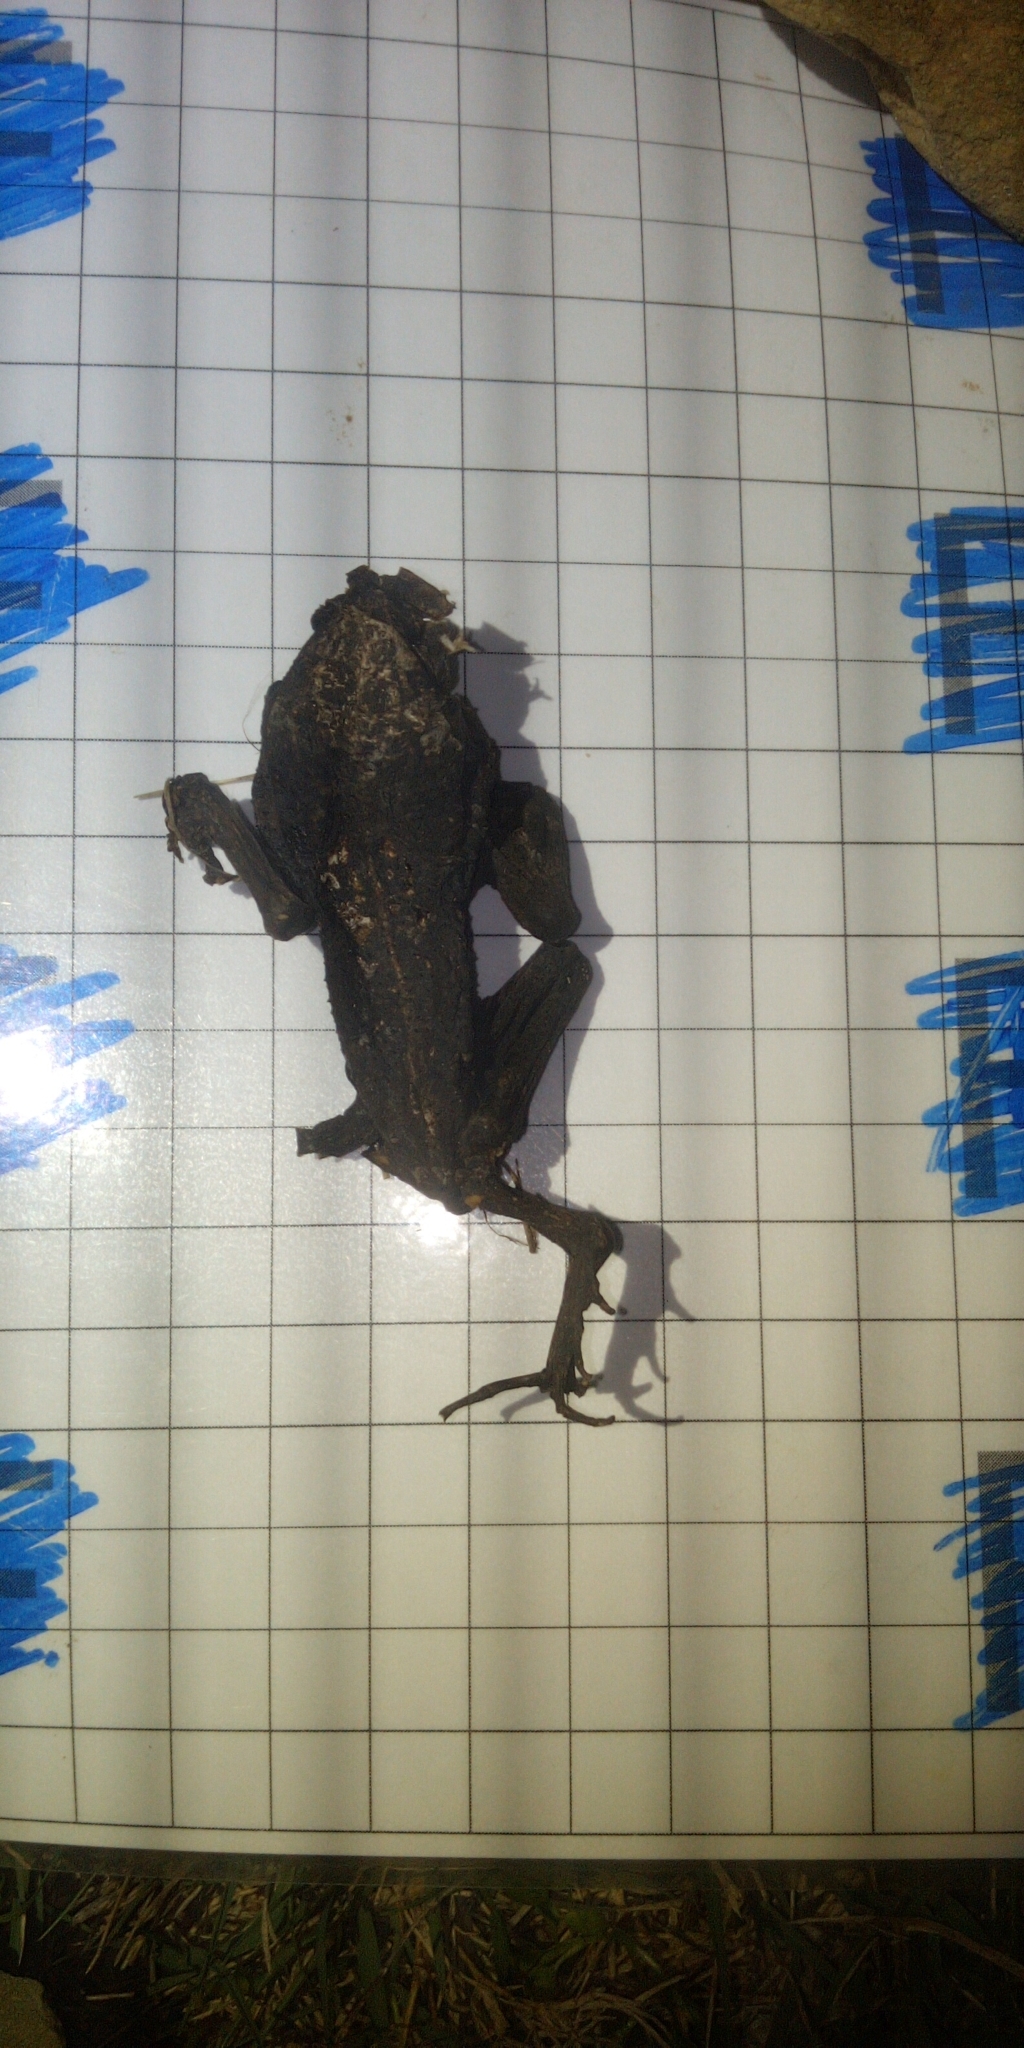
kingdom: Animalia
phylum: Chordata
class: Amphibia
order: Anura
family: Bufonidae
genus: Sclerophrys
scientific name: Sclerophrys pantherina
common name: Panther toad
